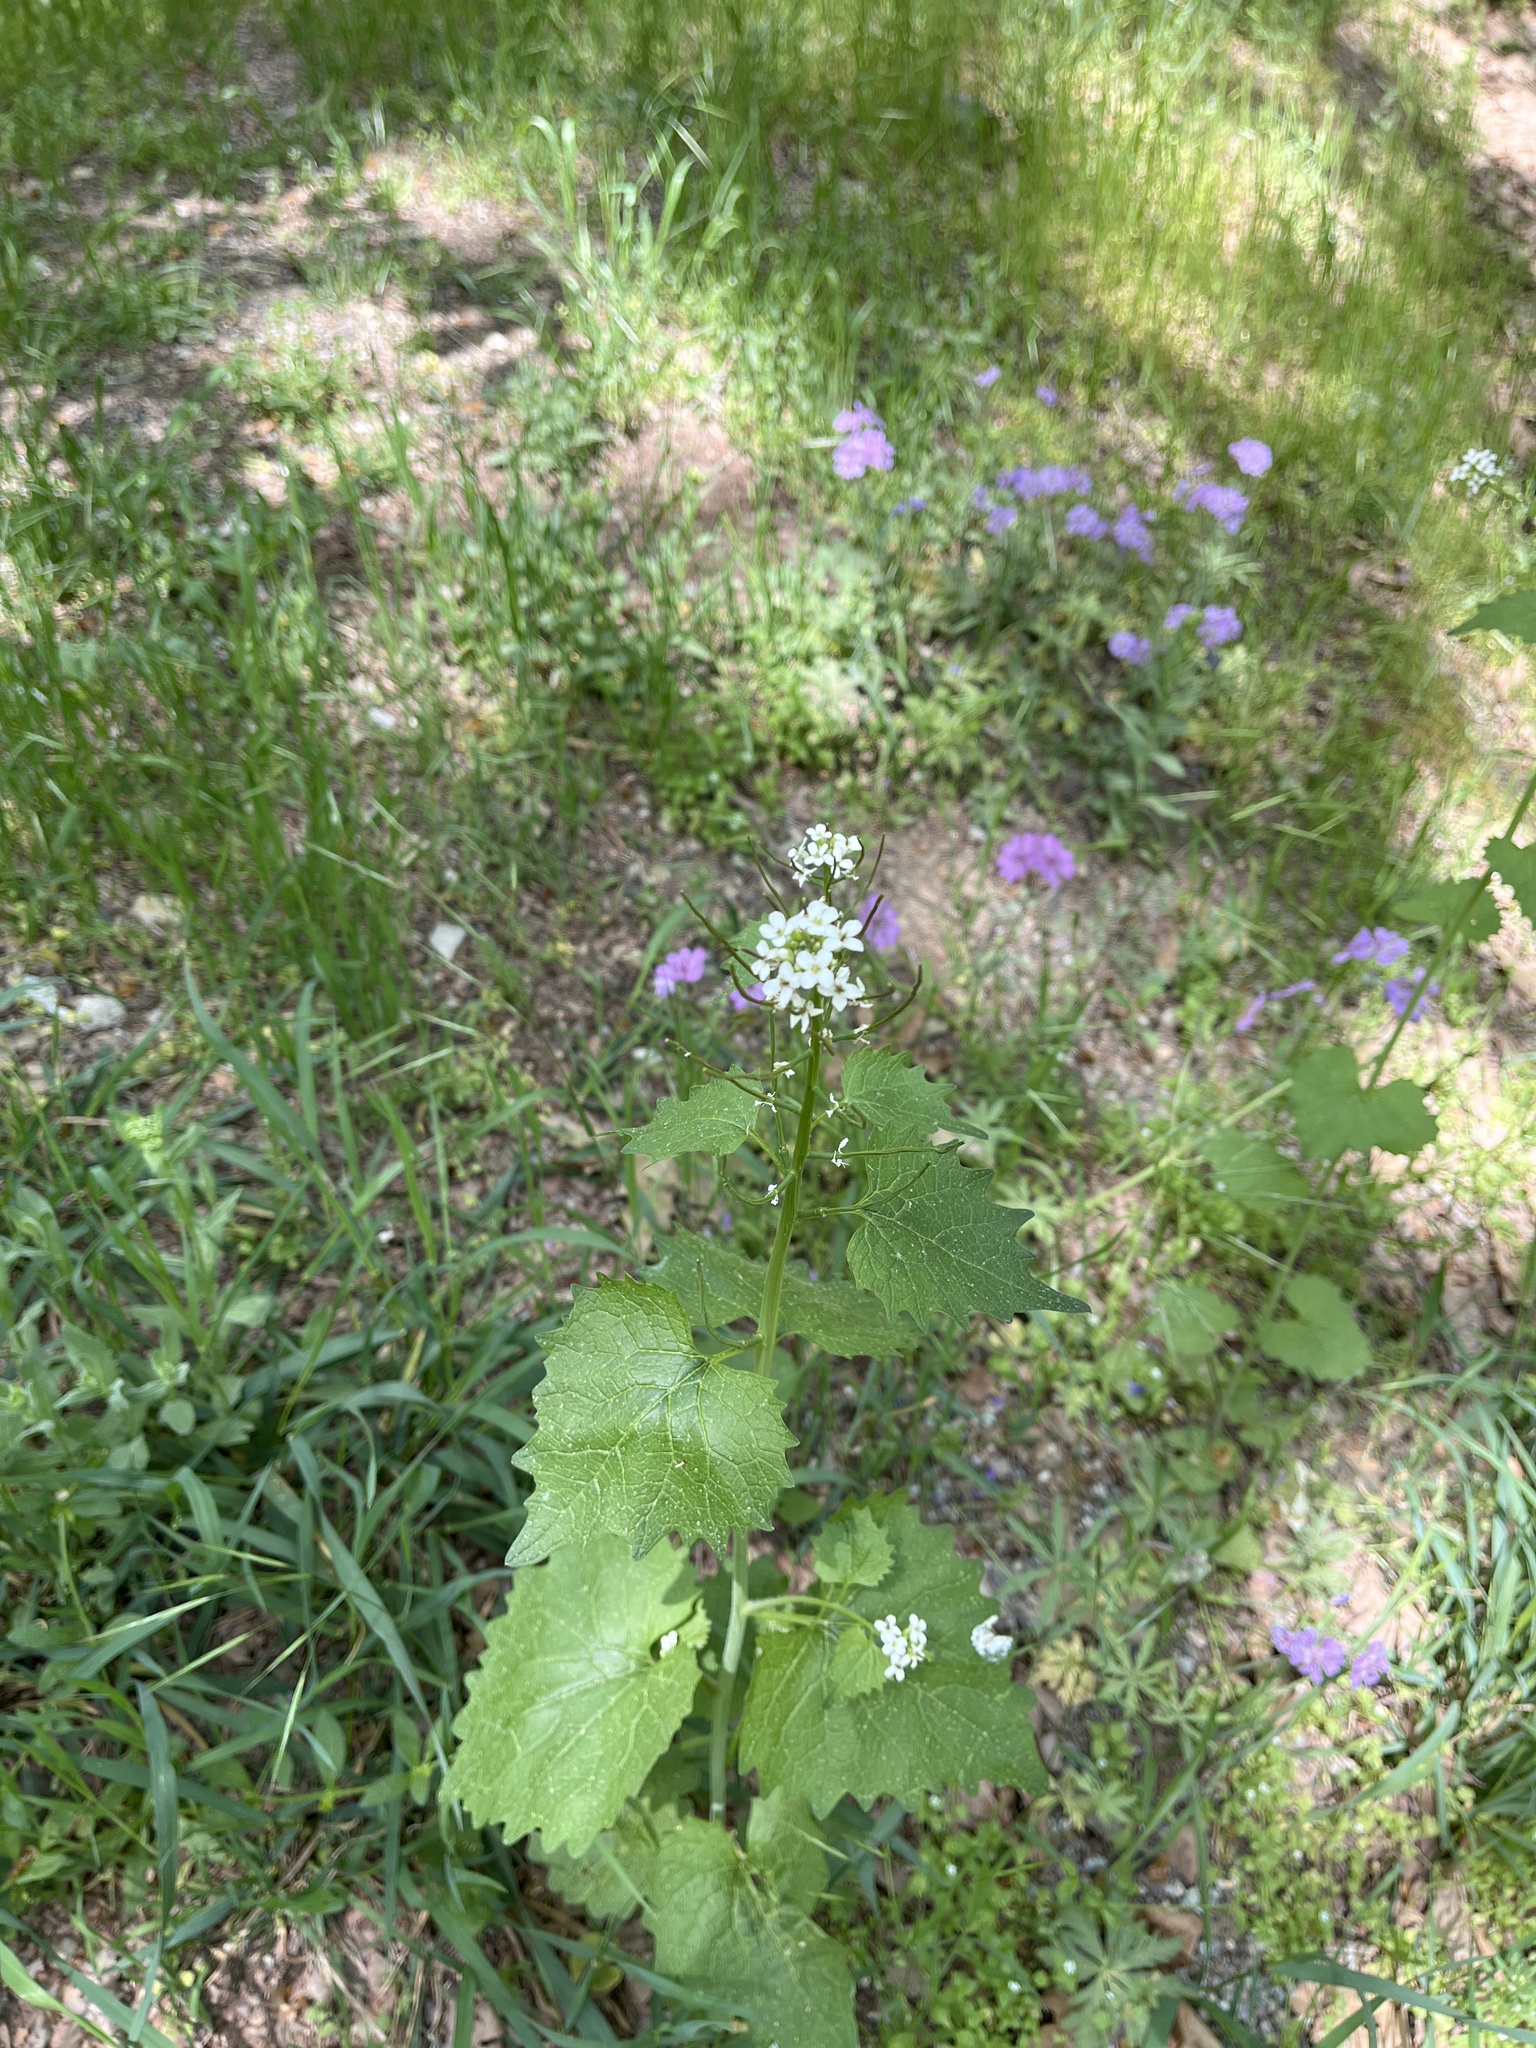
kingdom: Plantae
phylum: Tracheophyta
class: Magnoliopsida
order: Brassicales
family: Brassicaceae
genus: Alliaria
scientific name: Alliaria petiolata
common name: Garlic mustard
